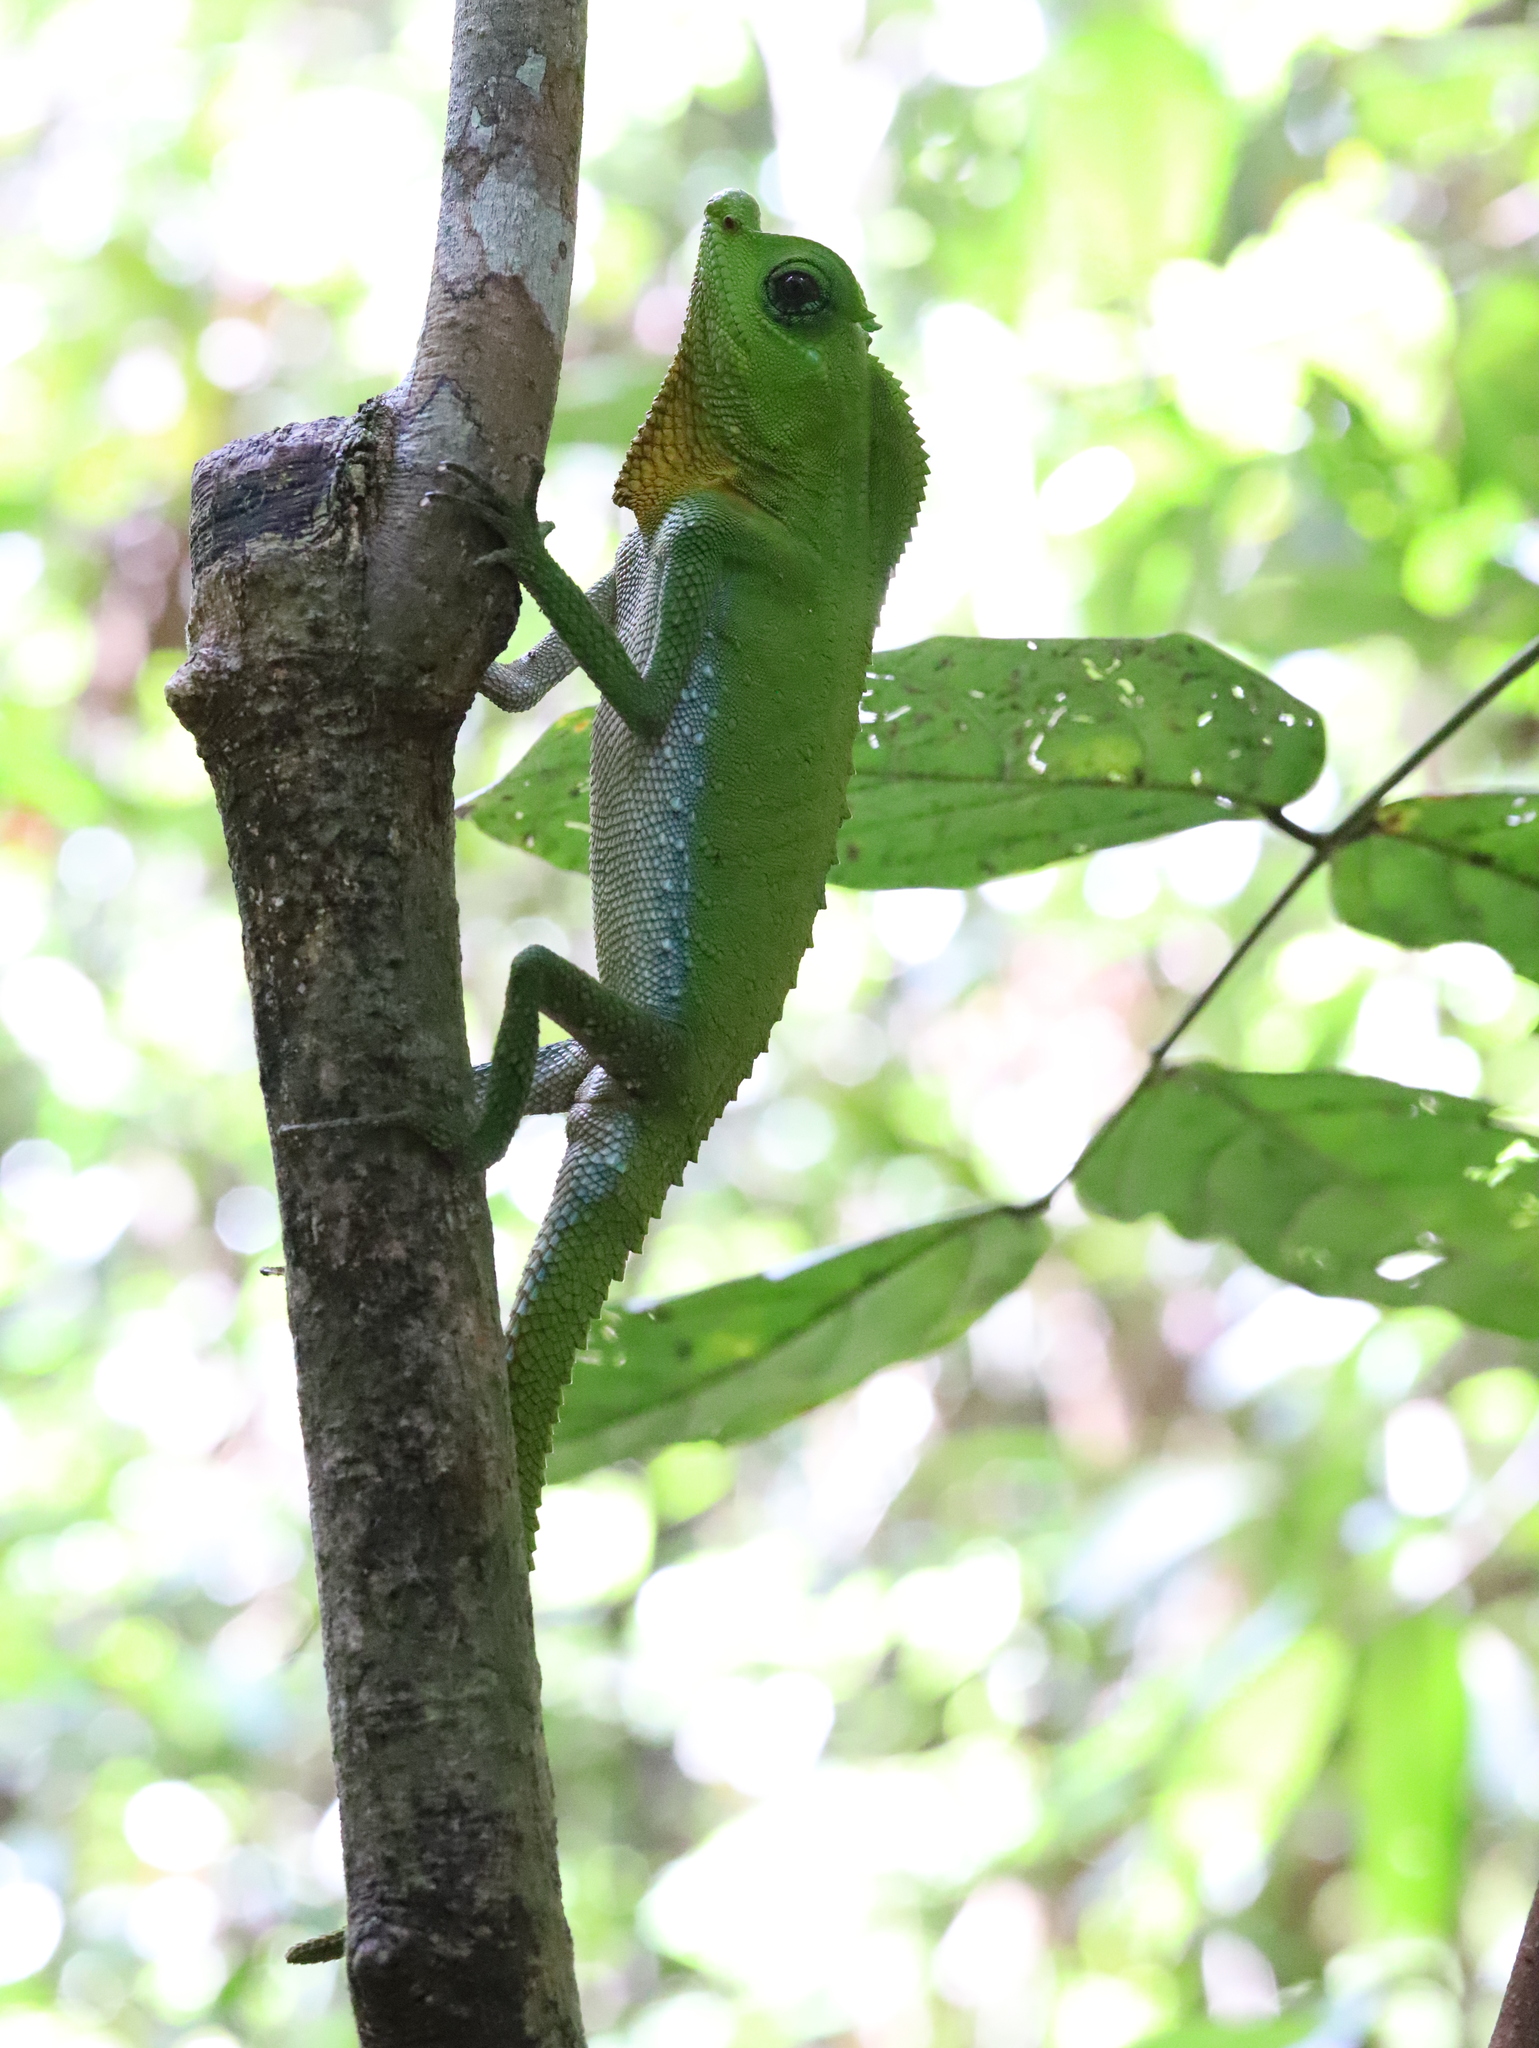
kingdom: Animalia
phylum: Chordata
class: Squamata
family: Agamidae
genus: Lyriocephalus
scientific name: Lyriocephalus scutatus
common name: Hump snout lizard
